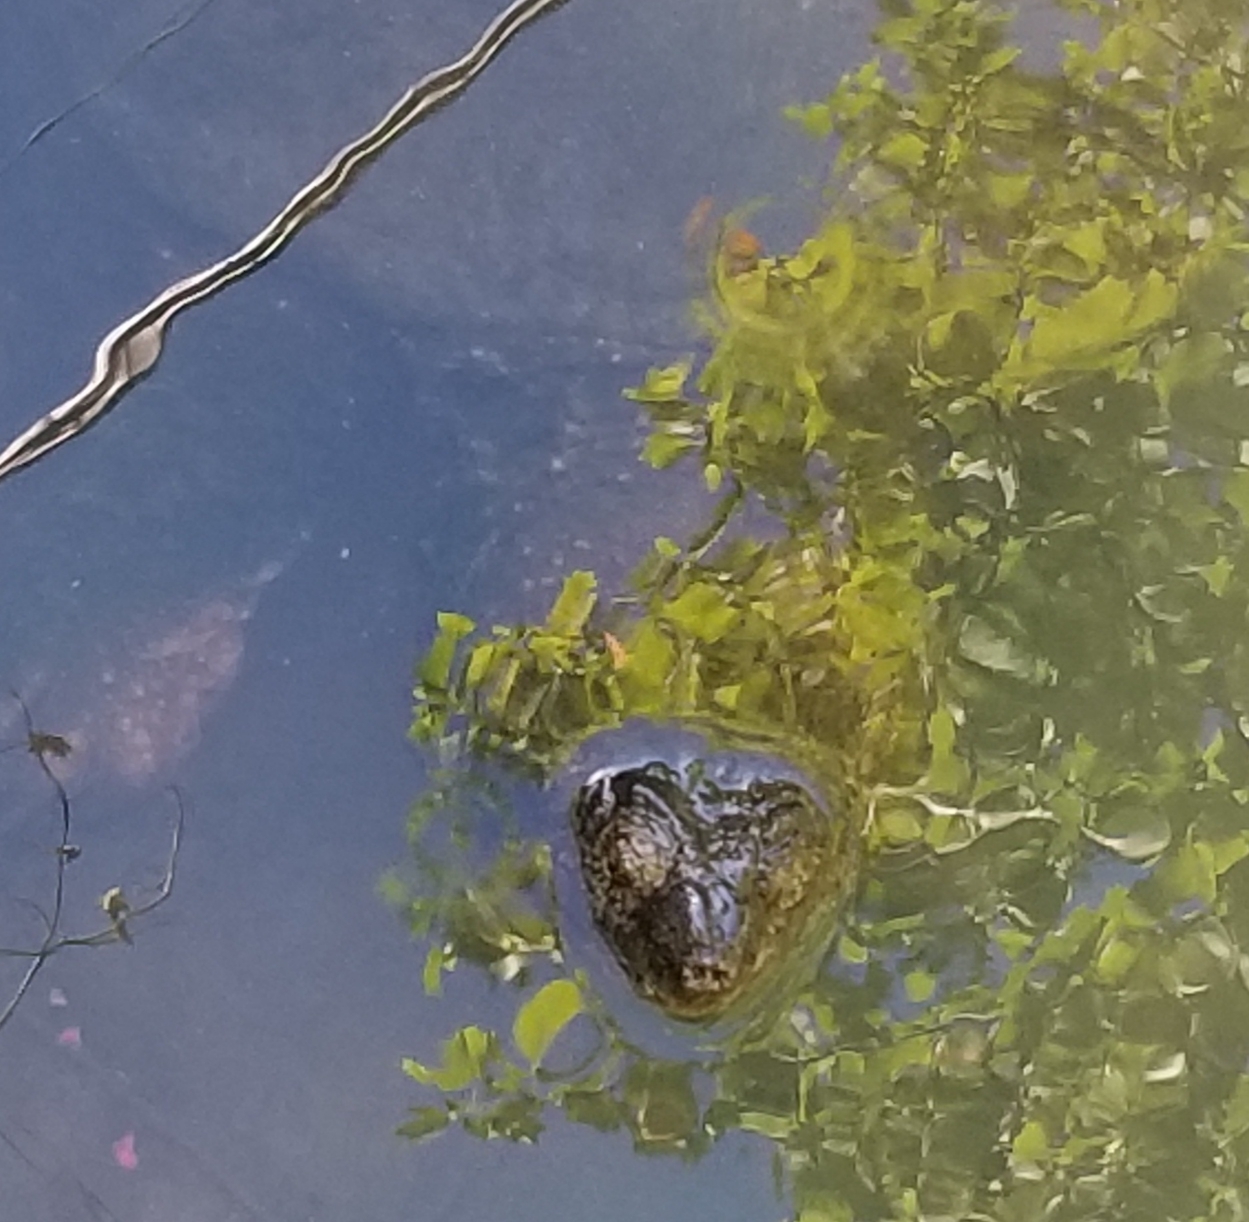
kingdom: Animalia
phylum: Chordata
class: Testudines
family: Chelydridae
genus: Chelydra
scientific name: Chelydra serpentina
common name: Common snapping turtle
